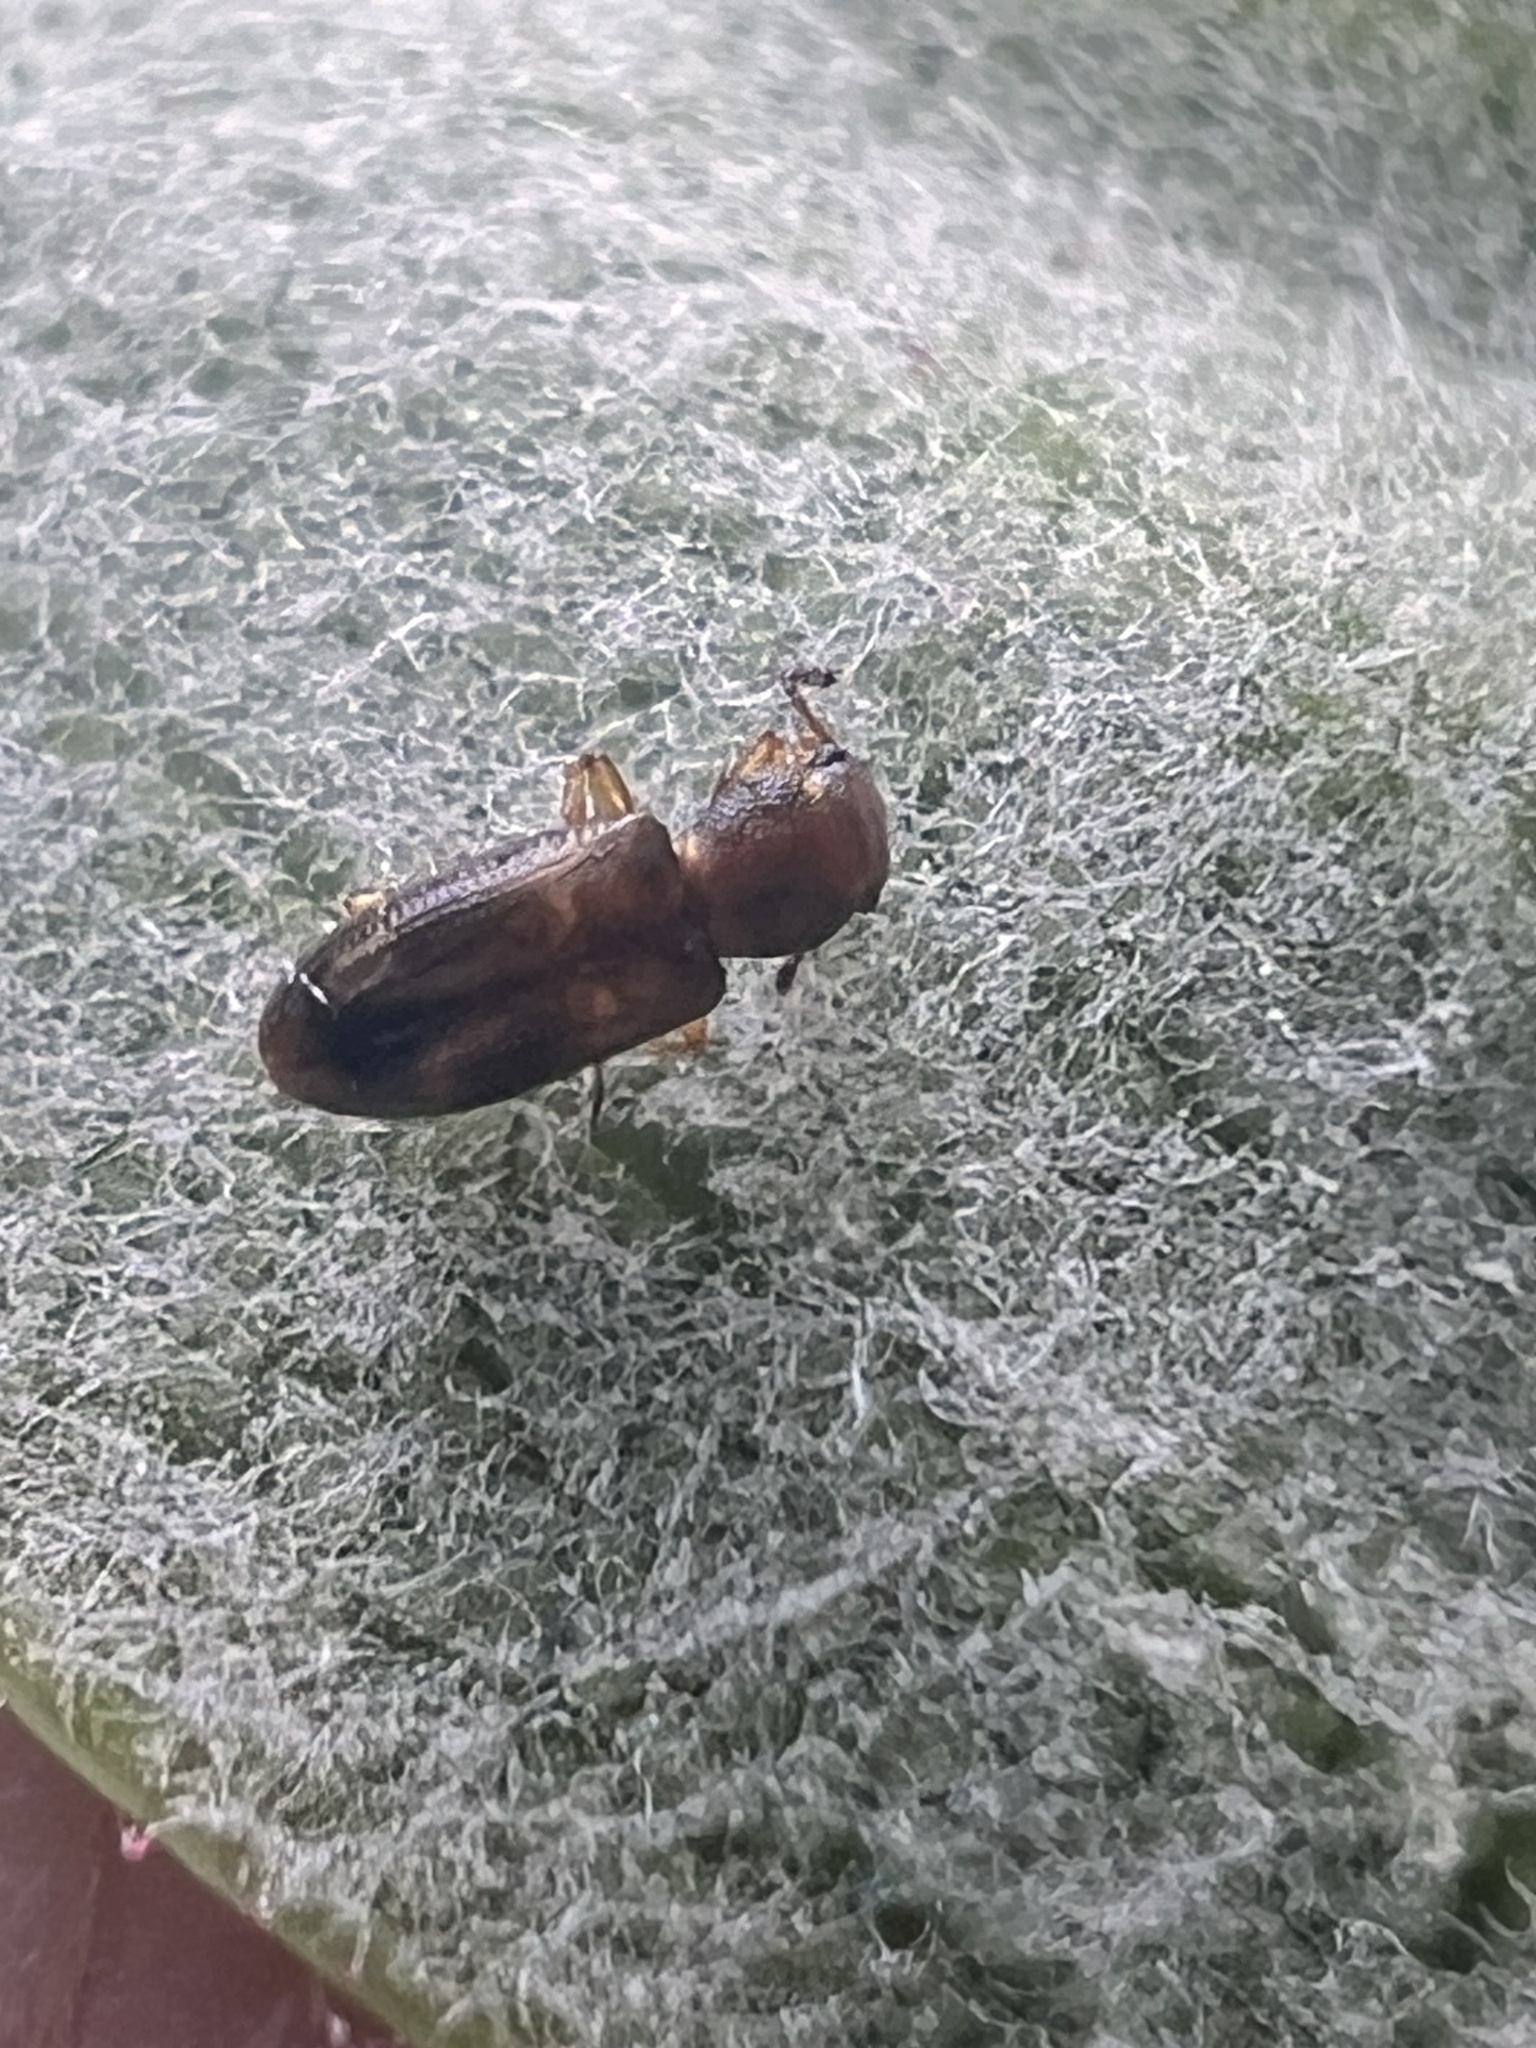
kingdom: Animalia
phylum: Arthropoda
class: Insecta
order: Coleoptera
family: Salpingidae
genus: Salpingus
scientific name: Salpingus
